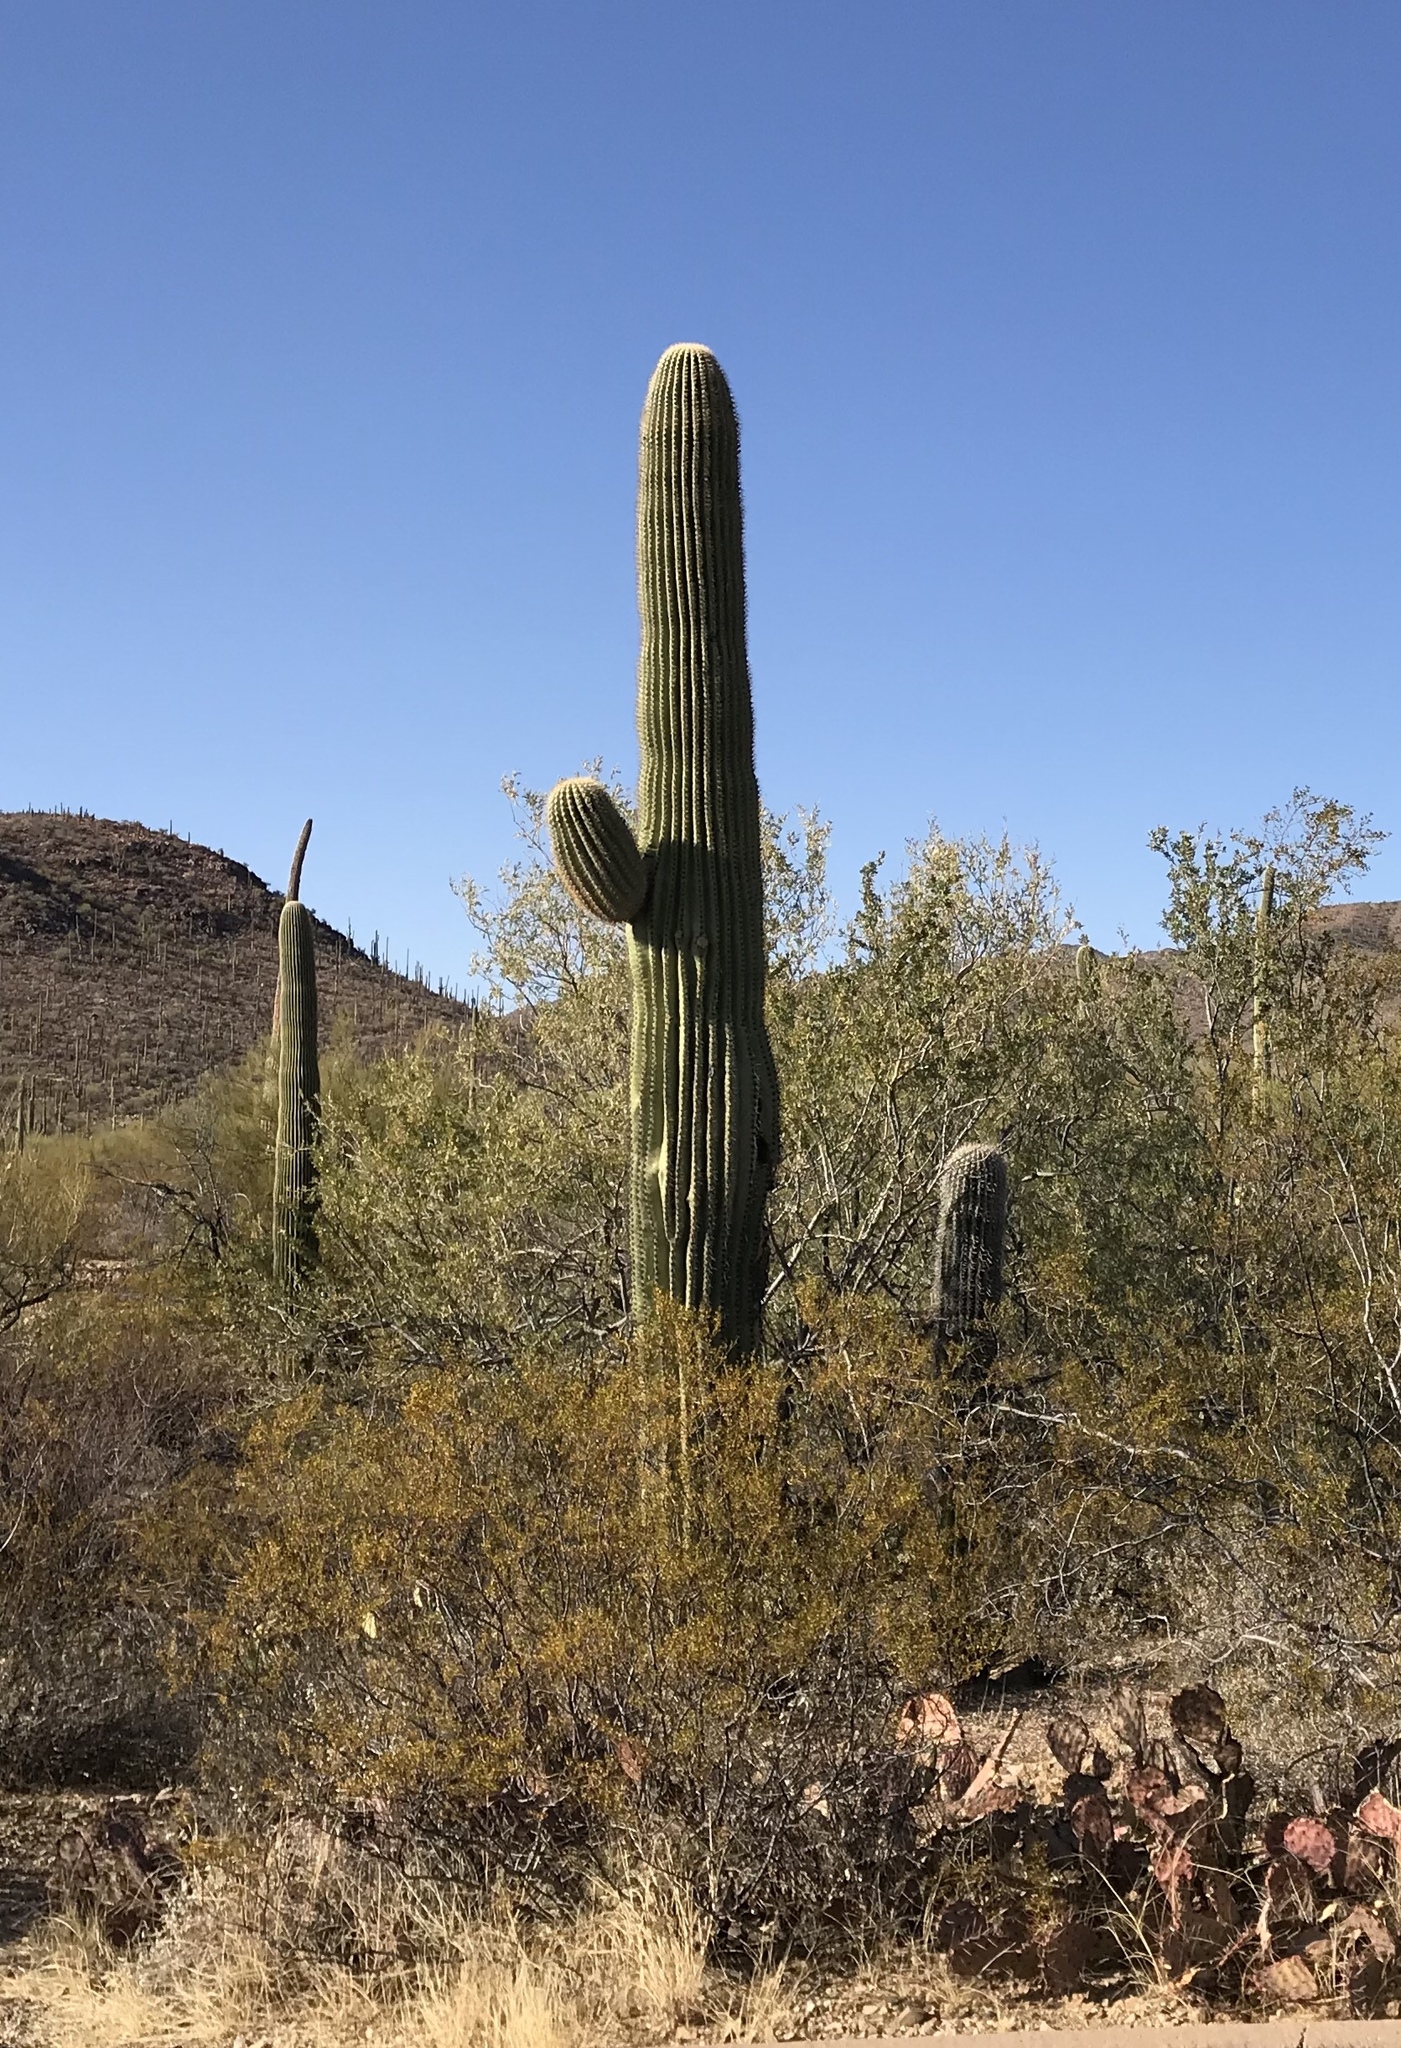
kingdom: Plantae
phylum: Tracheophyta
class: Magnoliopsida
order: Caryophyllales
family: Cactaceae
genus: Carnegiea
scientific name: Carnegiea gigantea
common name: Saguaro
